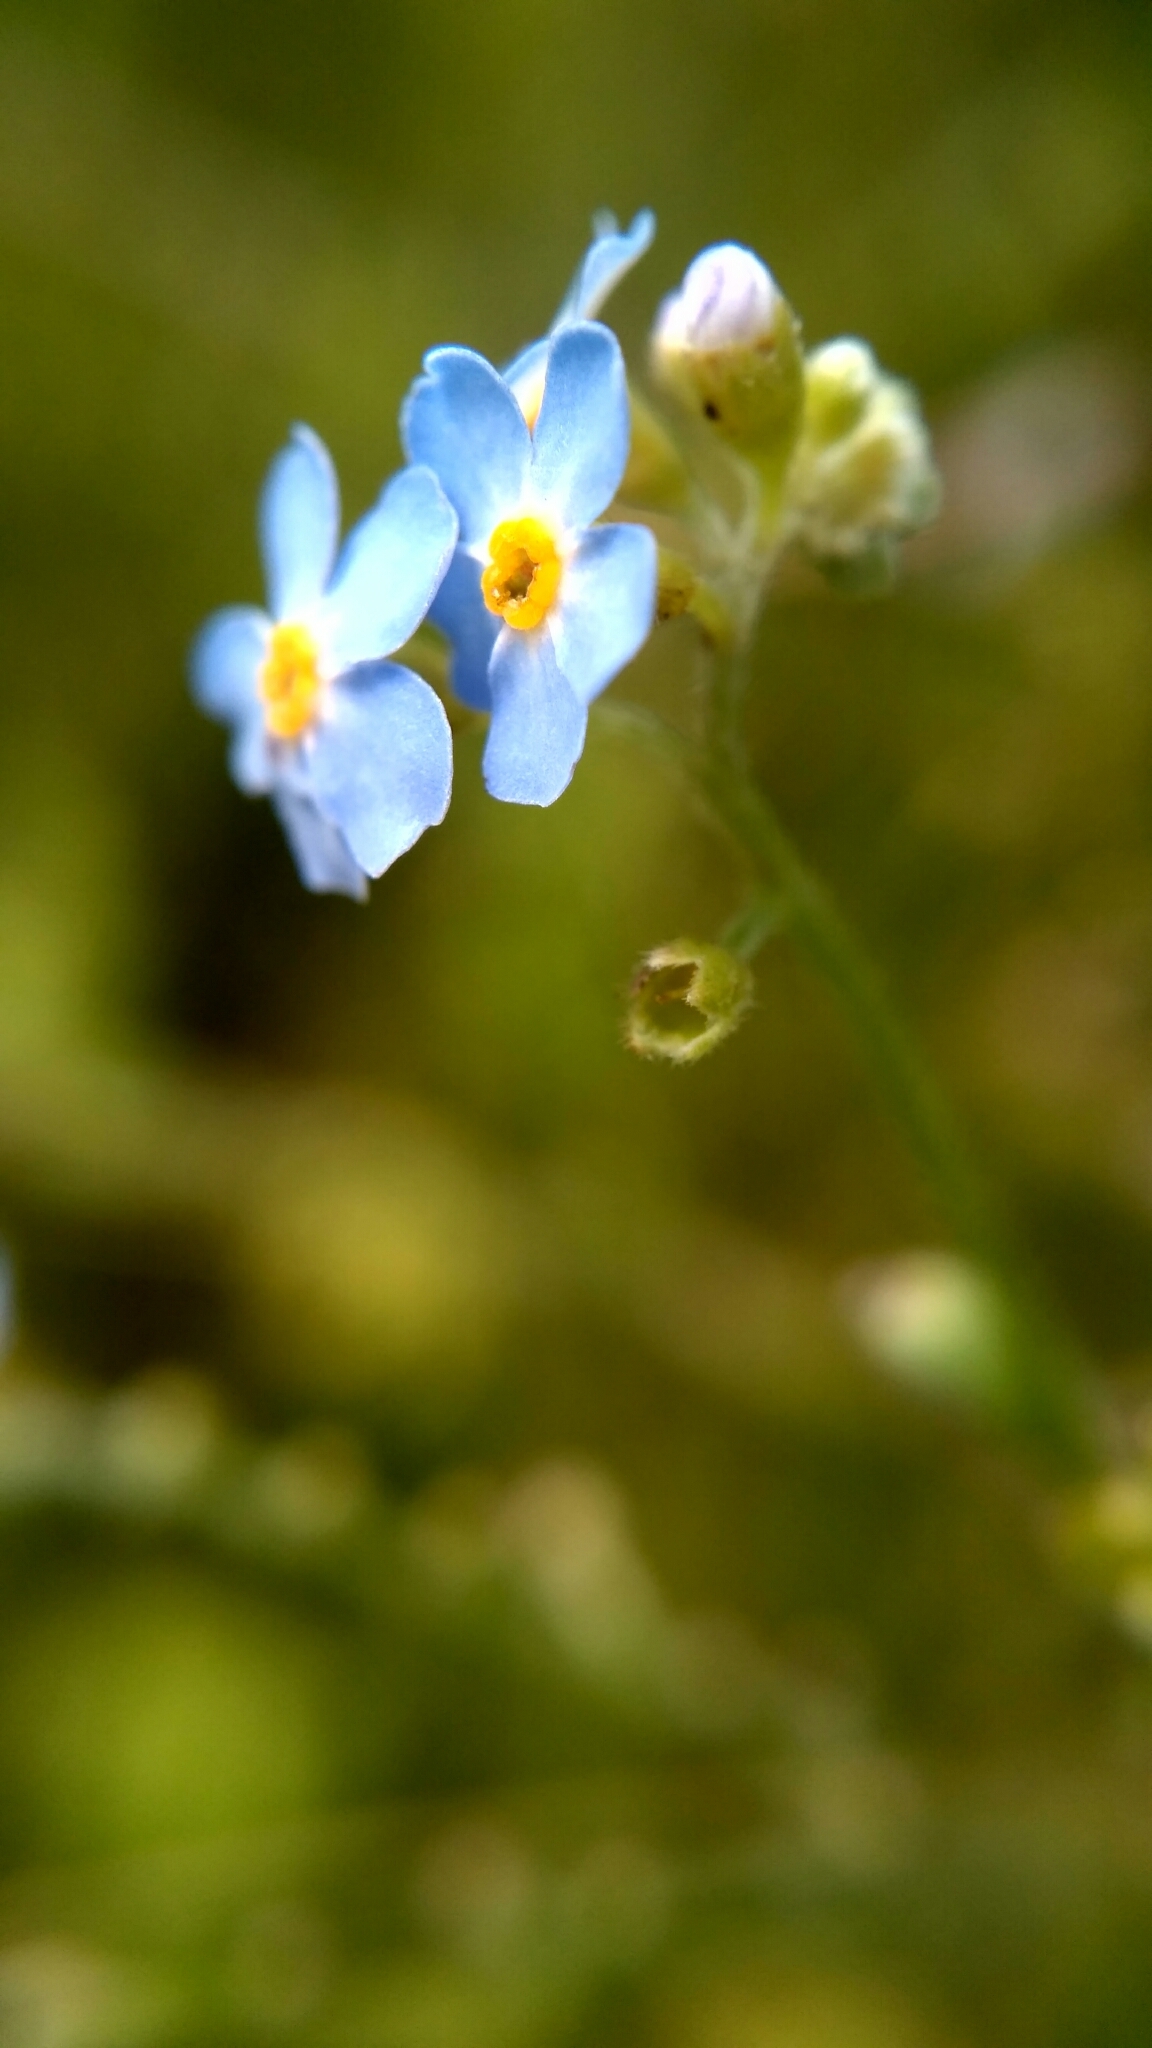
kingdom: Plantae
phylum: Tracheophyta
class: Magnoliopsida
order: Boraginales
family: Boraginaceae
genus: Myosotis
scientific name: Myosotis scorpioides
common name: Water forget-me-not
